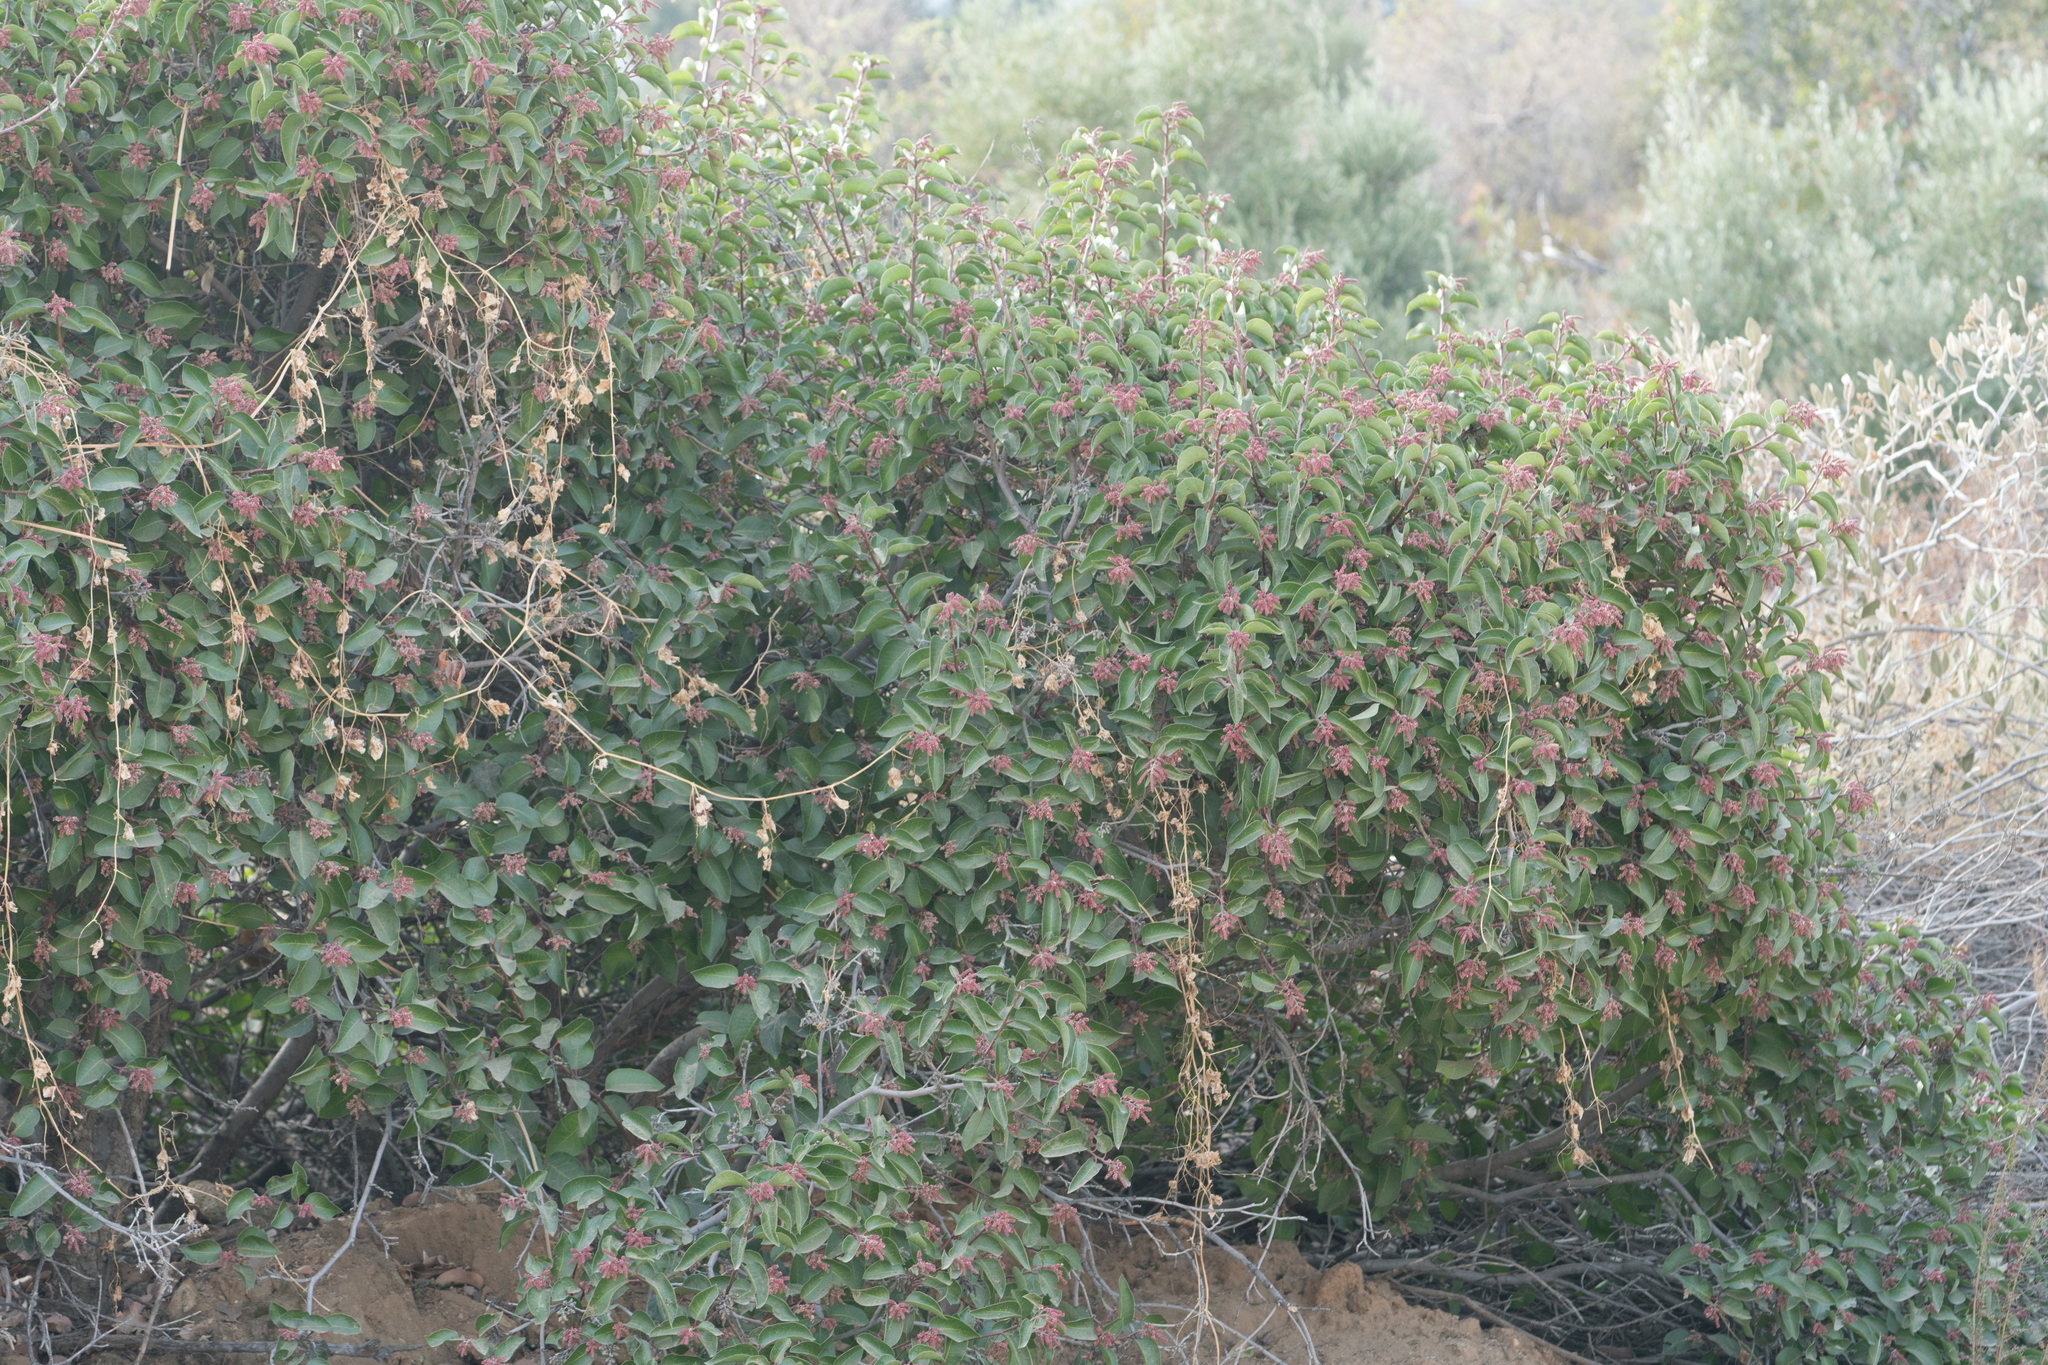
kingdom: Plantae
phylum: Tracheophyta
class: Magnoliopsida
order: Sapindales
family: Anacardiaceae
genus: Rhus
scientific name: Rhus ovata
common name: Sugar sumac
